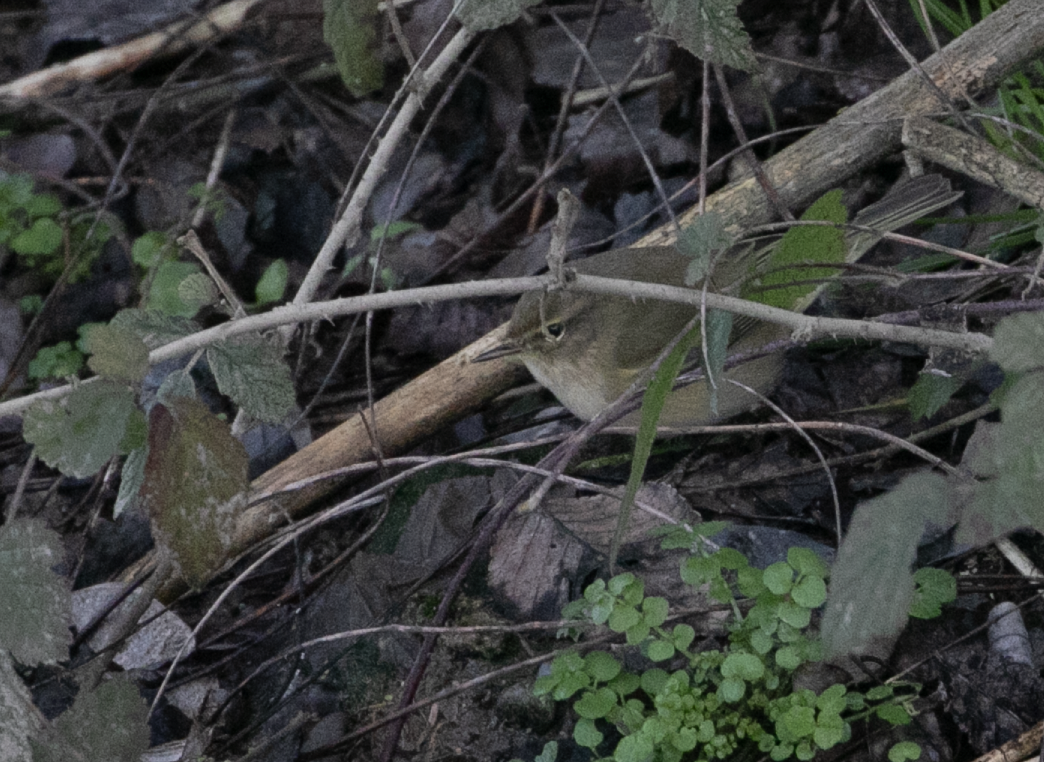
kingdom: Animalia
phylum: Chordata
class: Aves
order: Passeriformes
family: Phylloscopidae
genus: Phylloscopus
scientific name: Phylloscopus collybita
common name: Common chiffchaff
